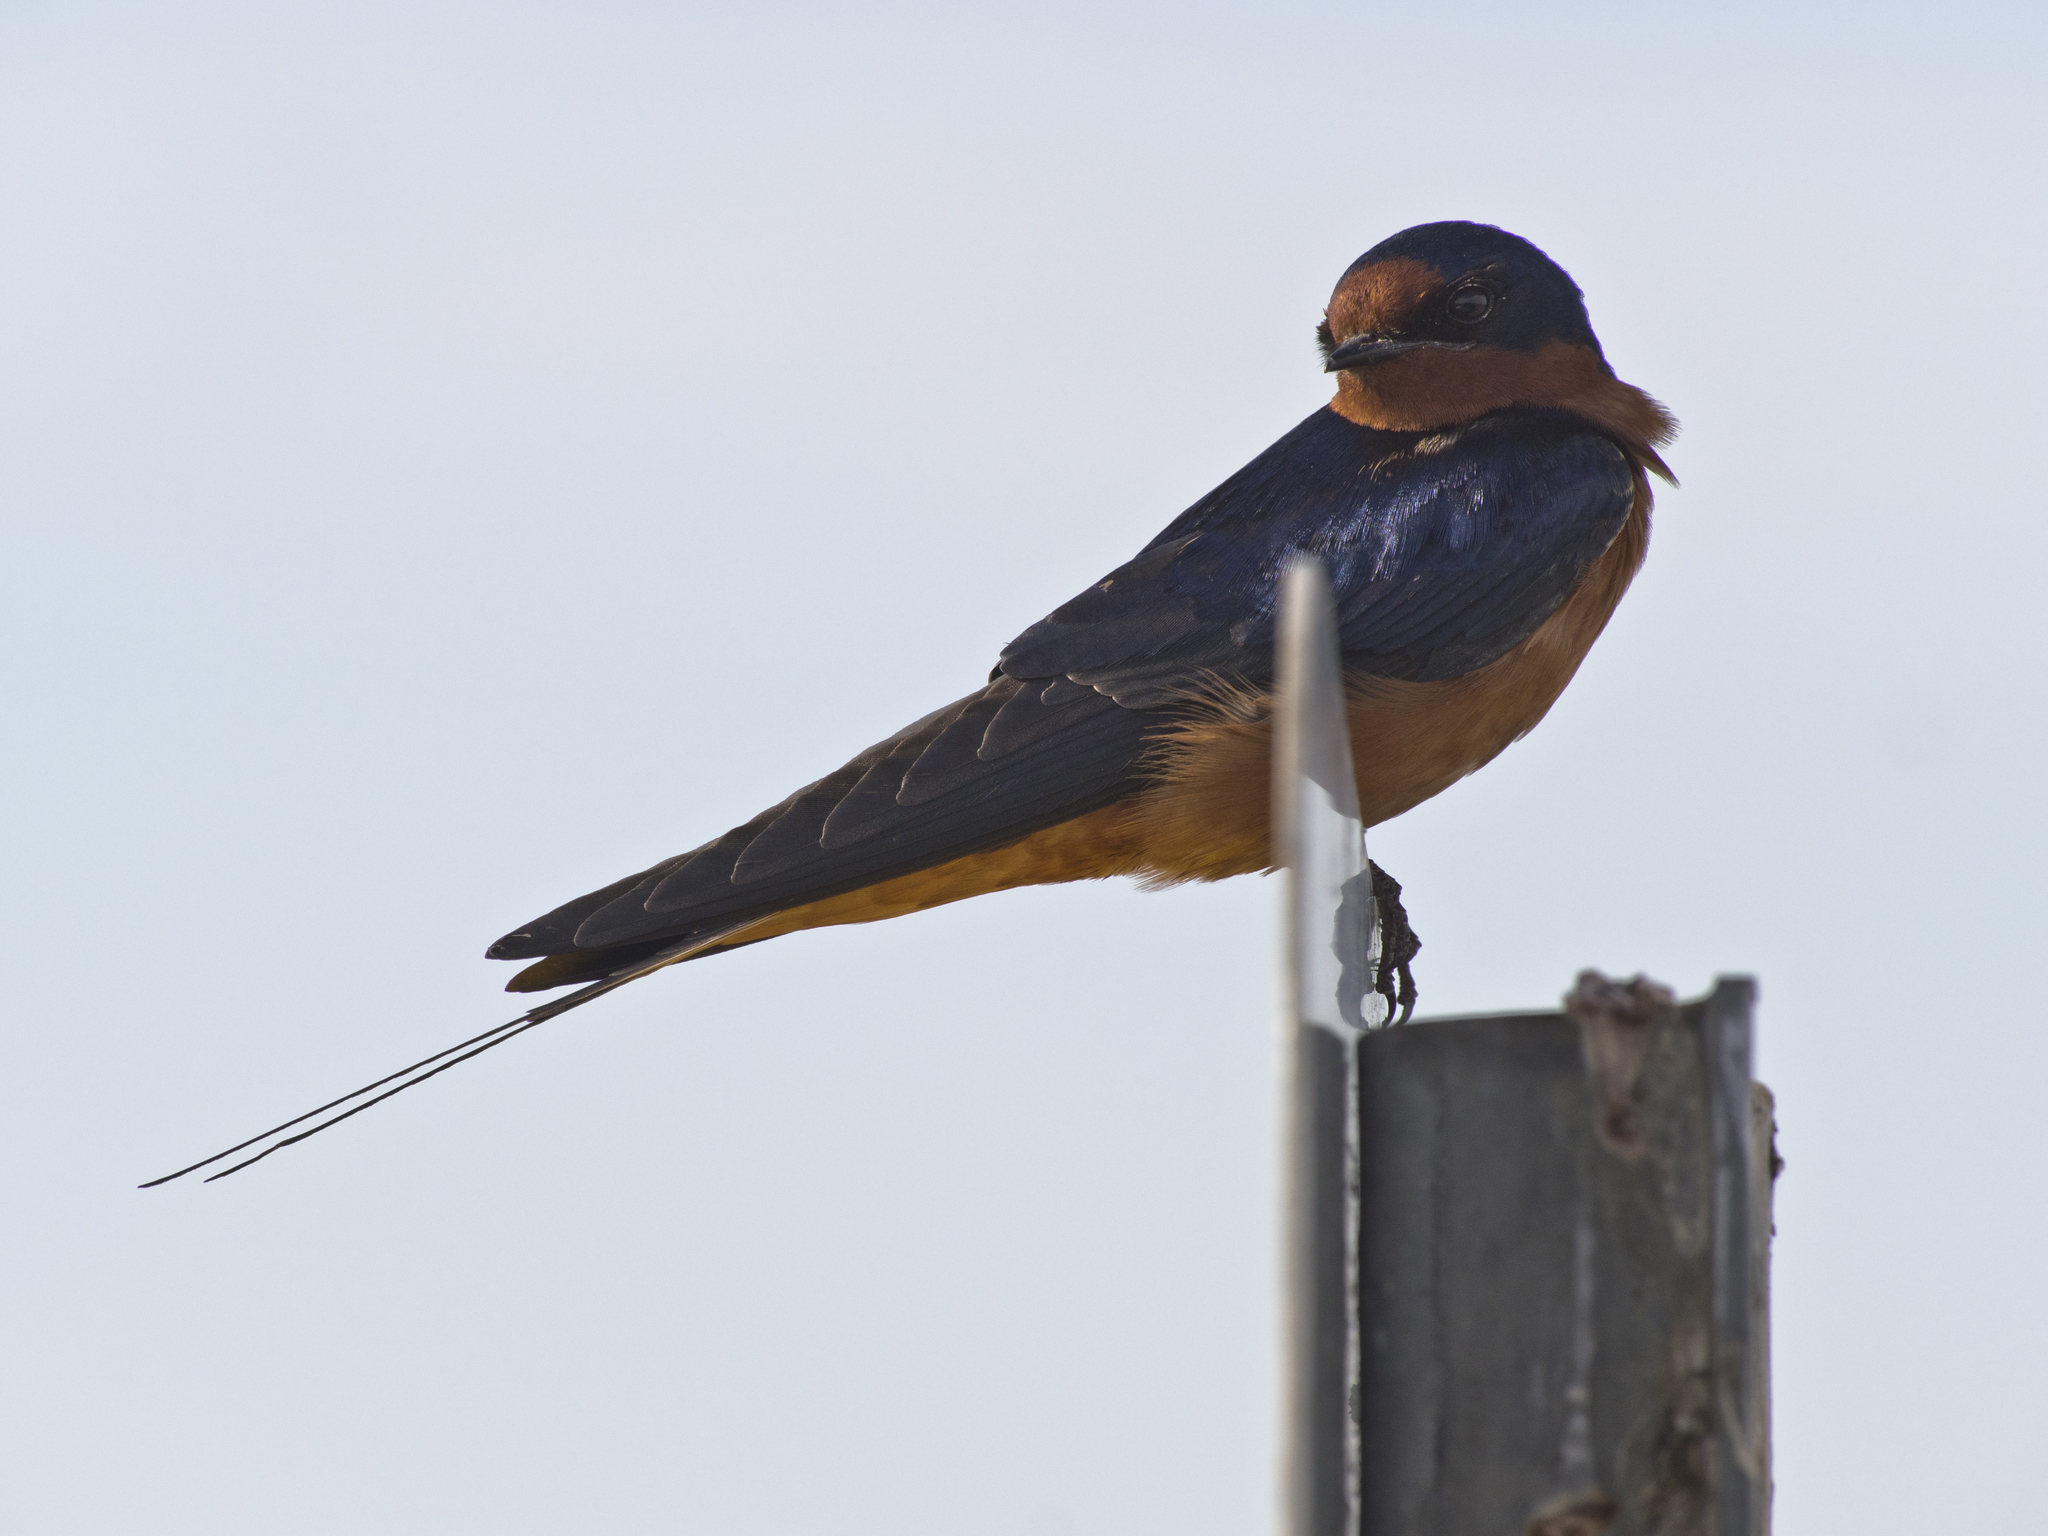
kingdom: Animalia
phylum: Chordata
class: Aves
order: Passeriformes
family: Hirundinidae
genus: Hirundo
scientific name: Hirundo rustica
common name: Barn swallow
